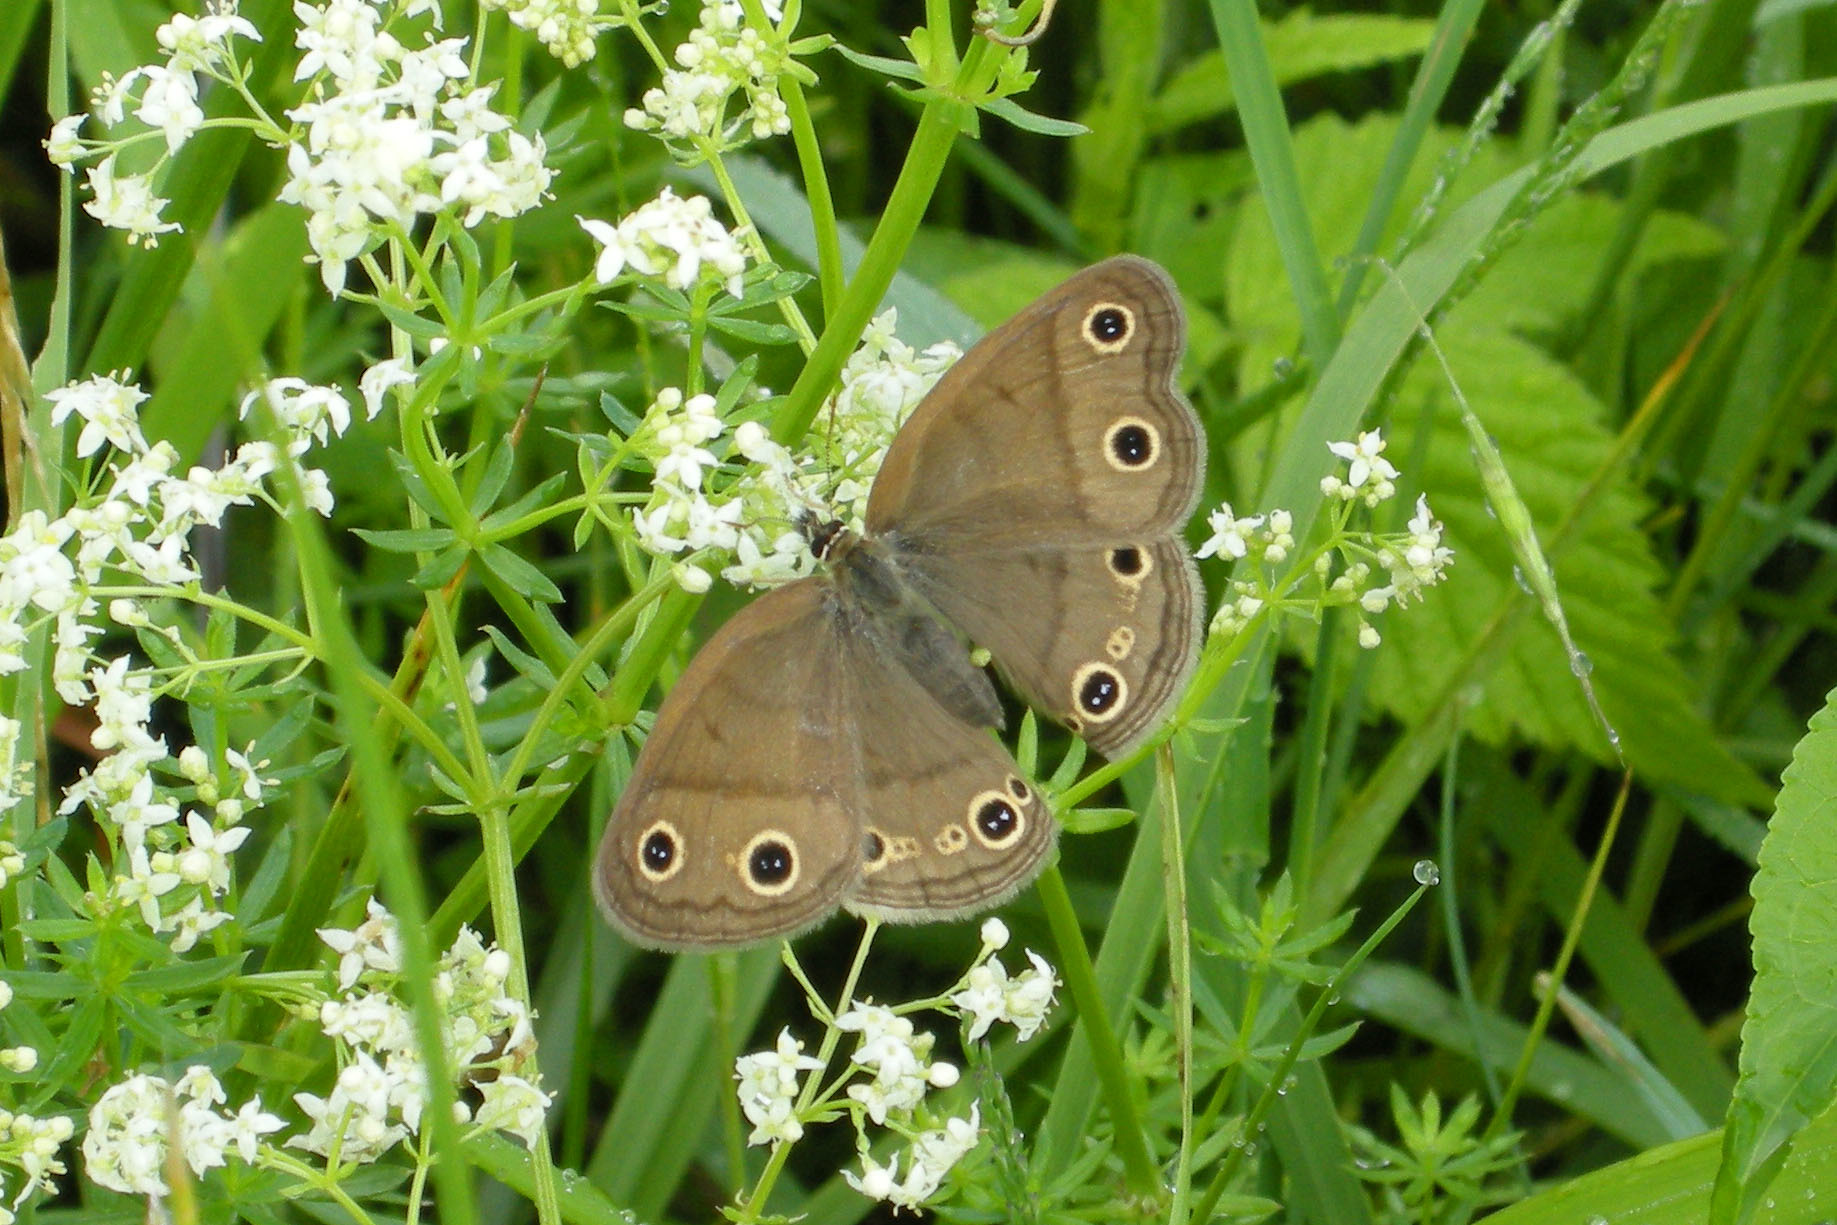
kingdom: Animalia
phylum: Arthropoda
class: Insecta
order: Lepidoptera
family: Nymphalidae
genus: Euptychia
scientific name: Euptychia cymela
